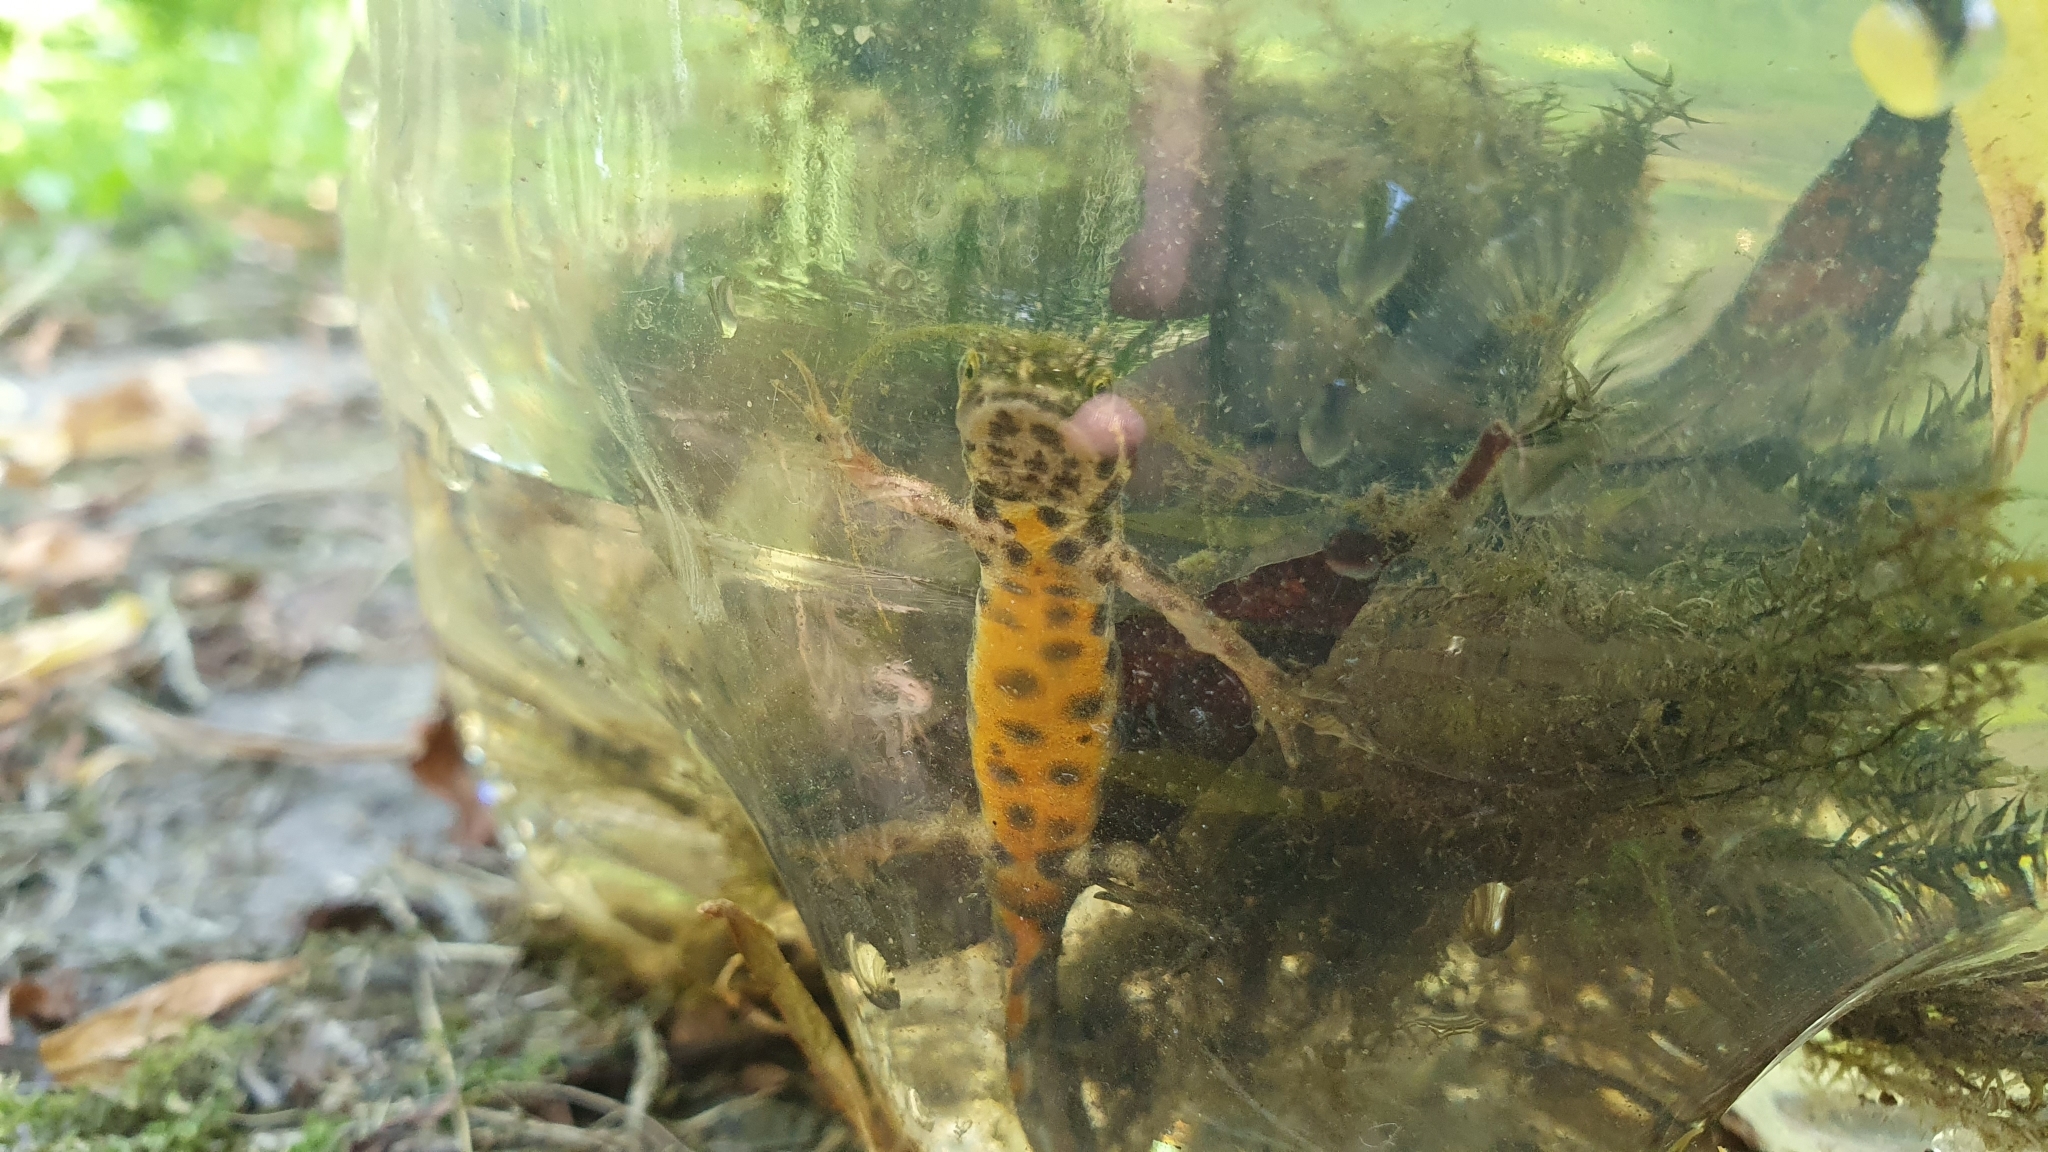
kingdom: Animalia
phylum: Chordata
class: Amphibia
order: Caudata
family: Salamandridae
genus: Lissotriton
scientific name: Lissotriton vulgaris
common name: Smooth newt
